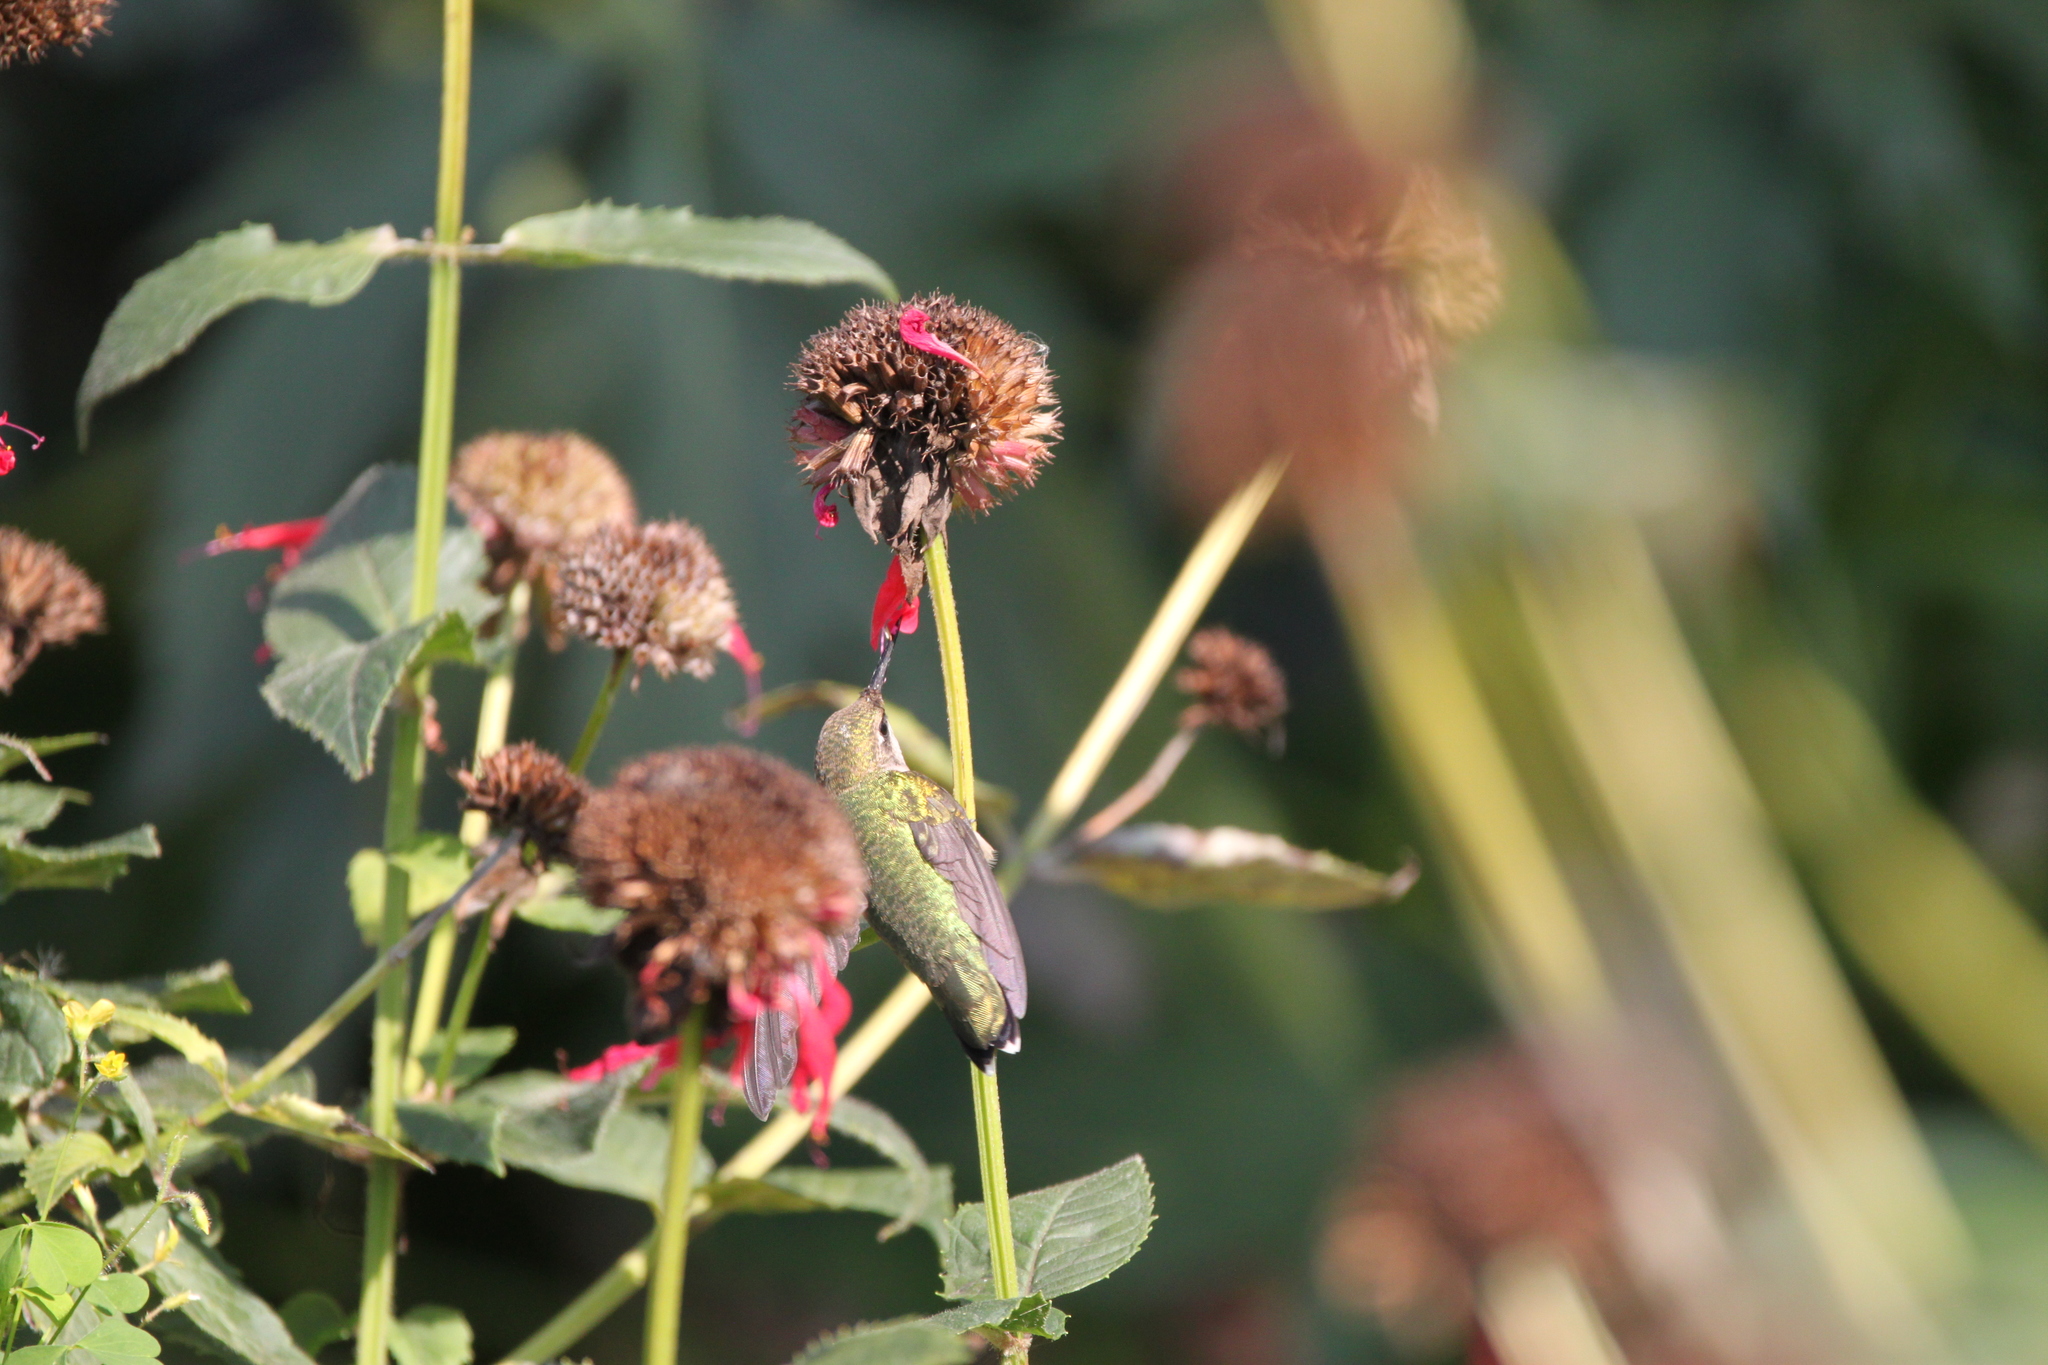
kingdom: Animalia
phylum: Chordata
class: Aves
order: Apodiformes
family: Trochilidae
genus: Archilochus
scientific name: Archilochus colubris
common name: Ruby-throated hummingbird
